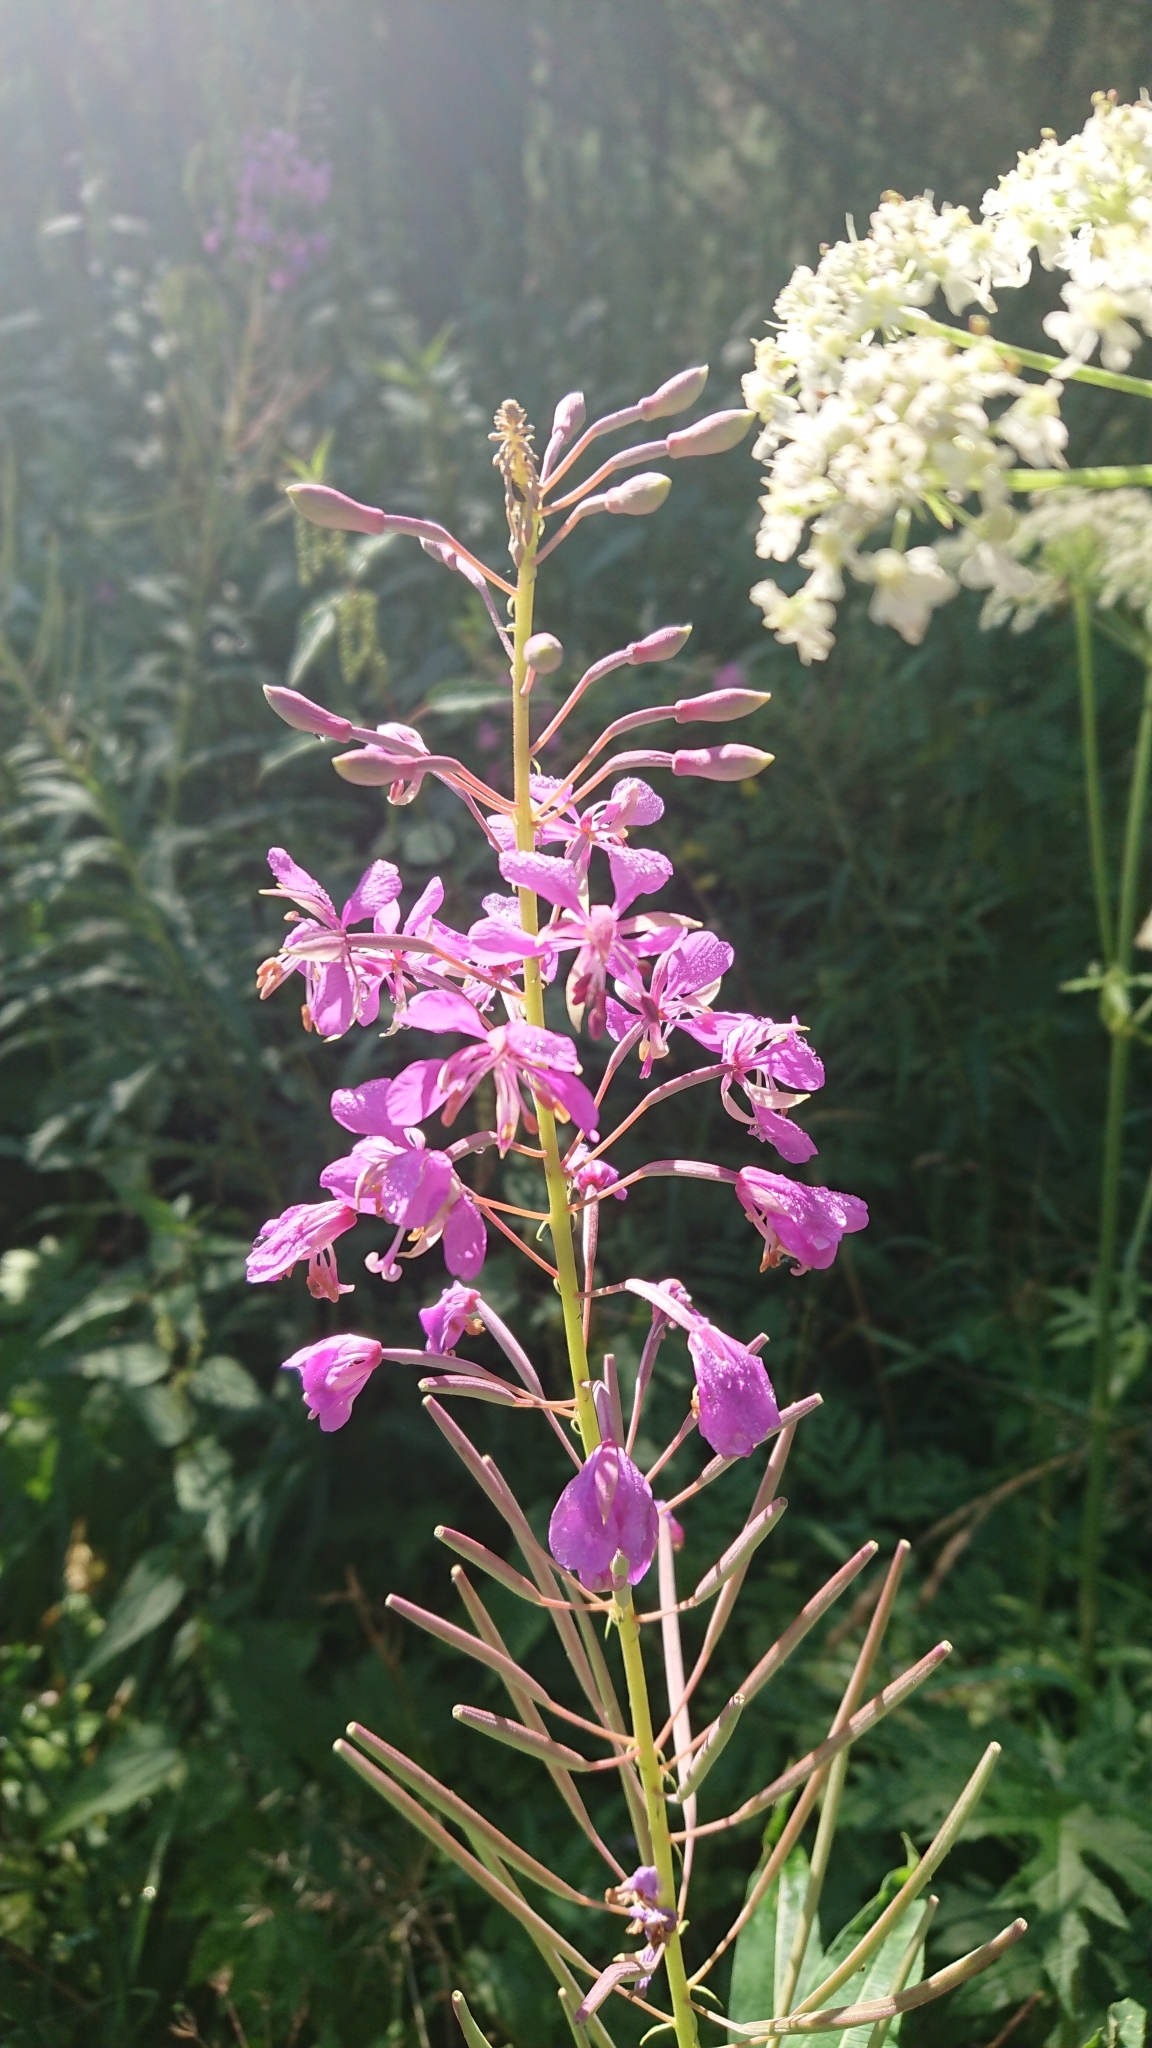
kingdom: Plantae
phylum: Tracheophyta
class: Magnoliopsida
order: Myrtales
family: Onagraceae
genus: Chamaenerion
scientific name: Chamaenerion angustifolium
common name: Fireweed
